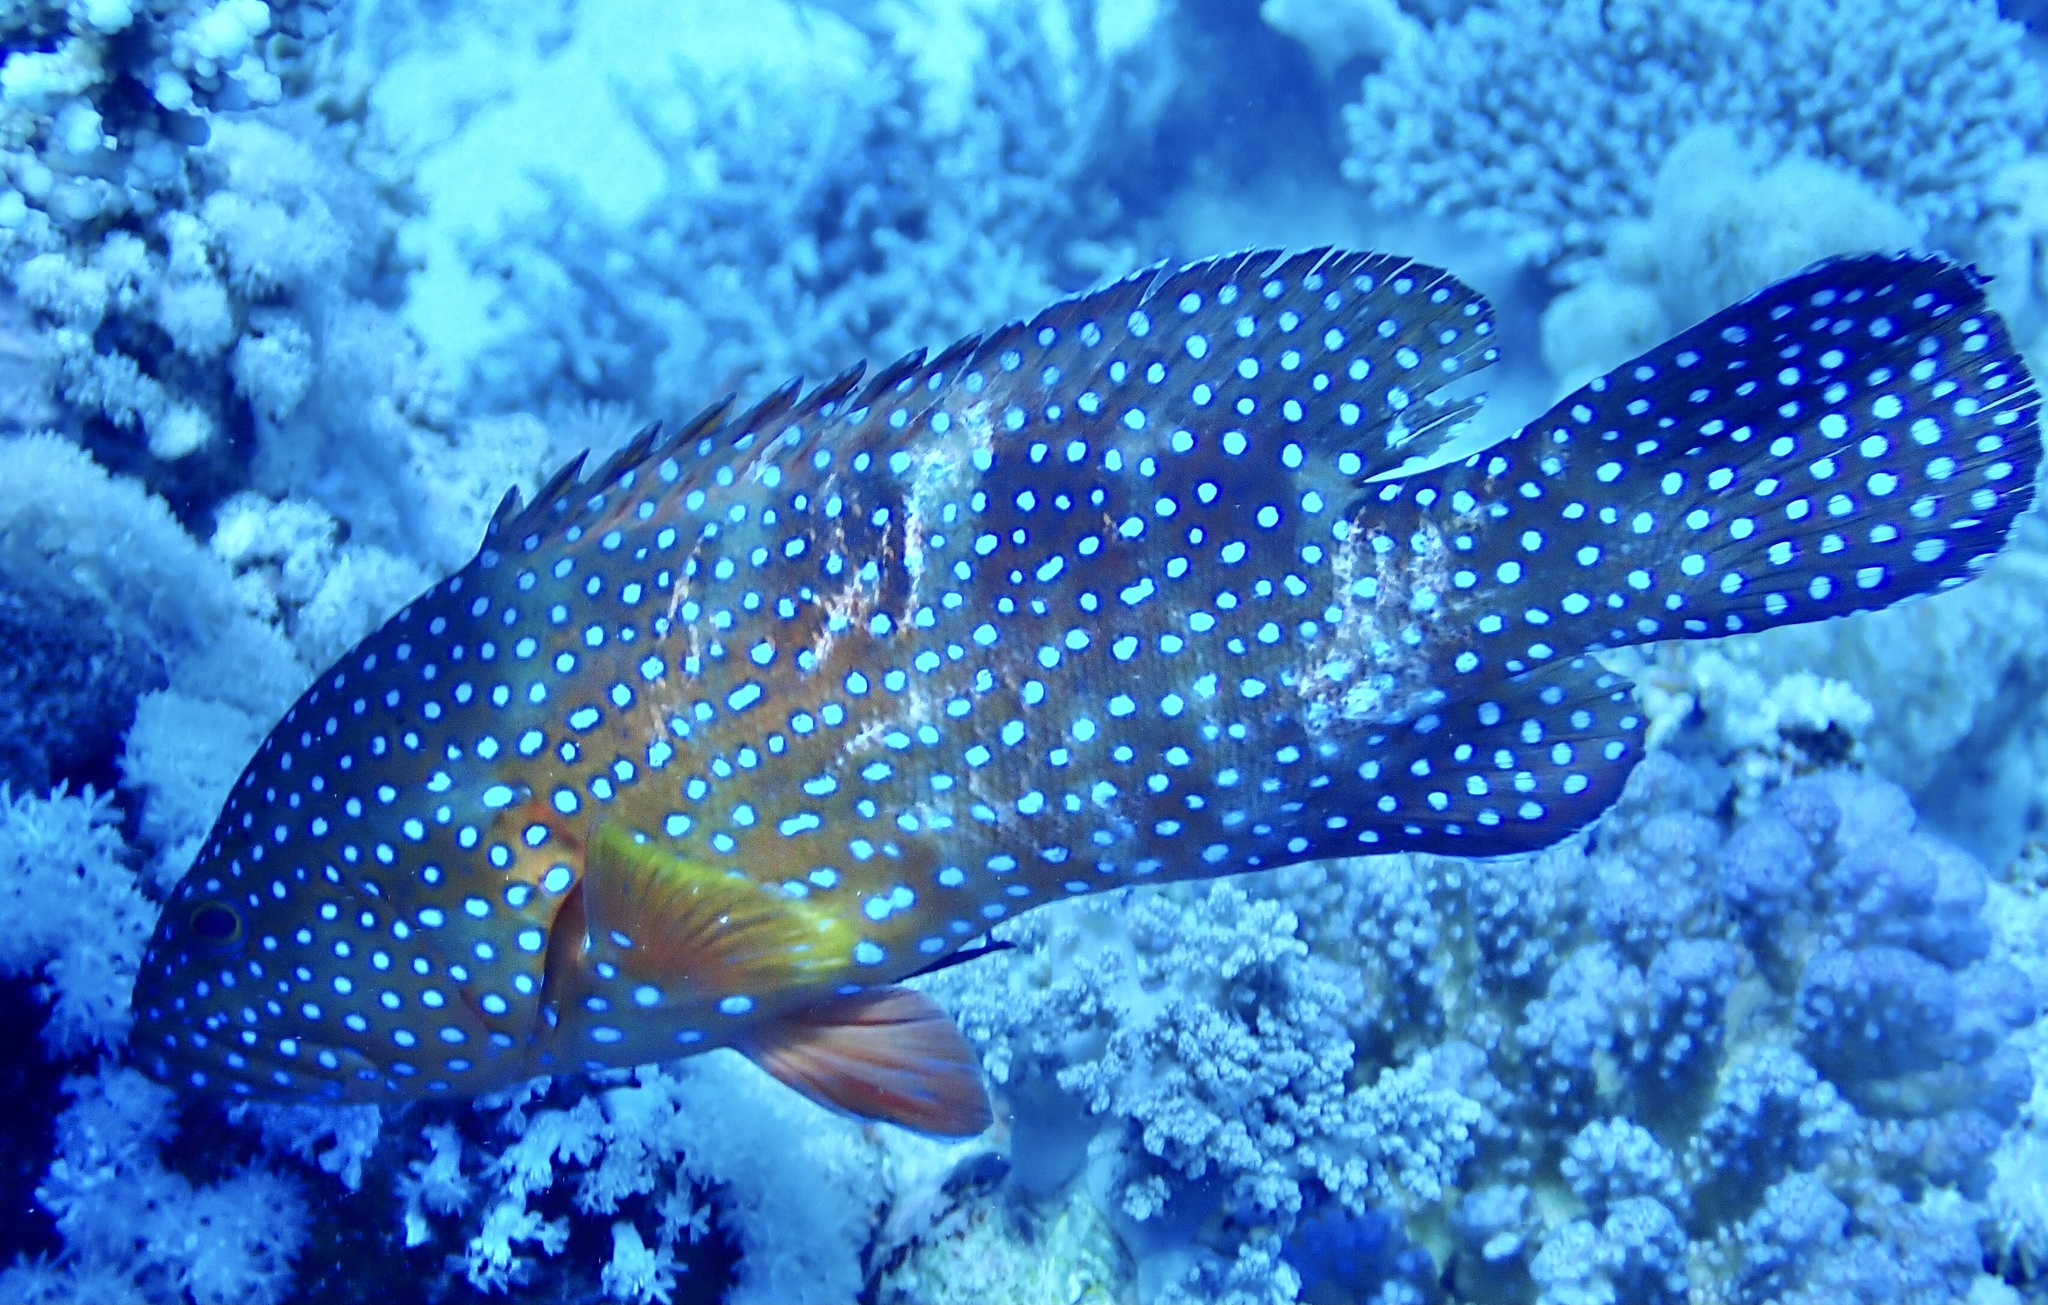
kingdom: Animalia
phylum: Chordata
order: Perciformes
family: Serranidae
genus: Cephalopholis
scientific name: Cephalopholis miniata
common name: Coral hind
